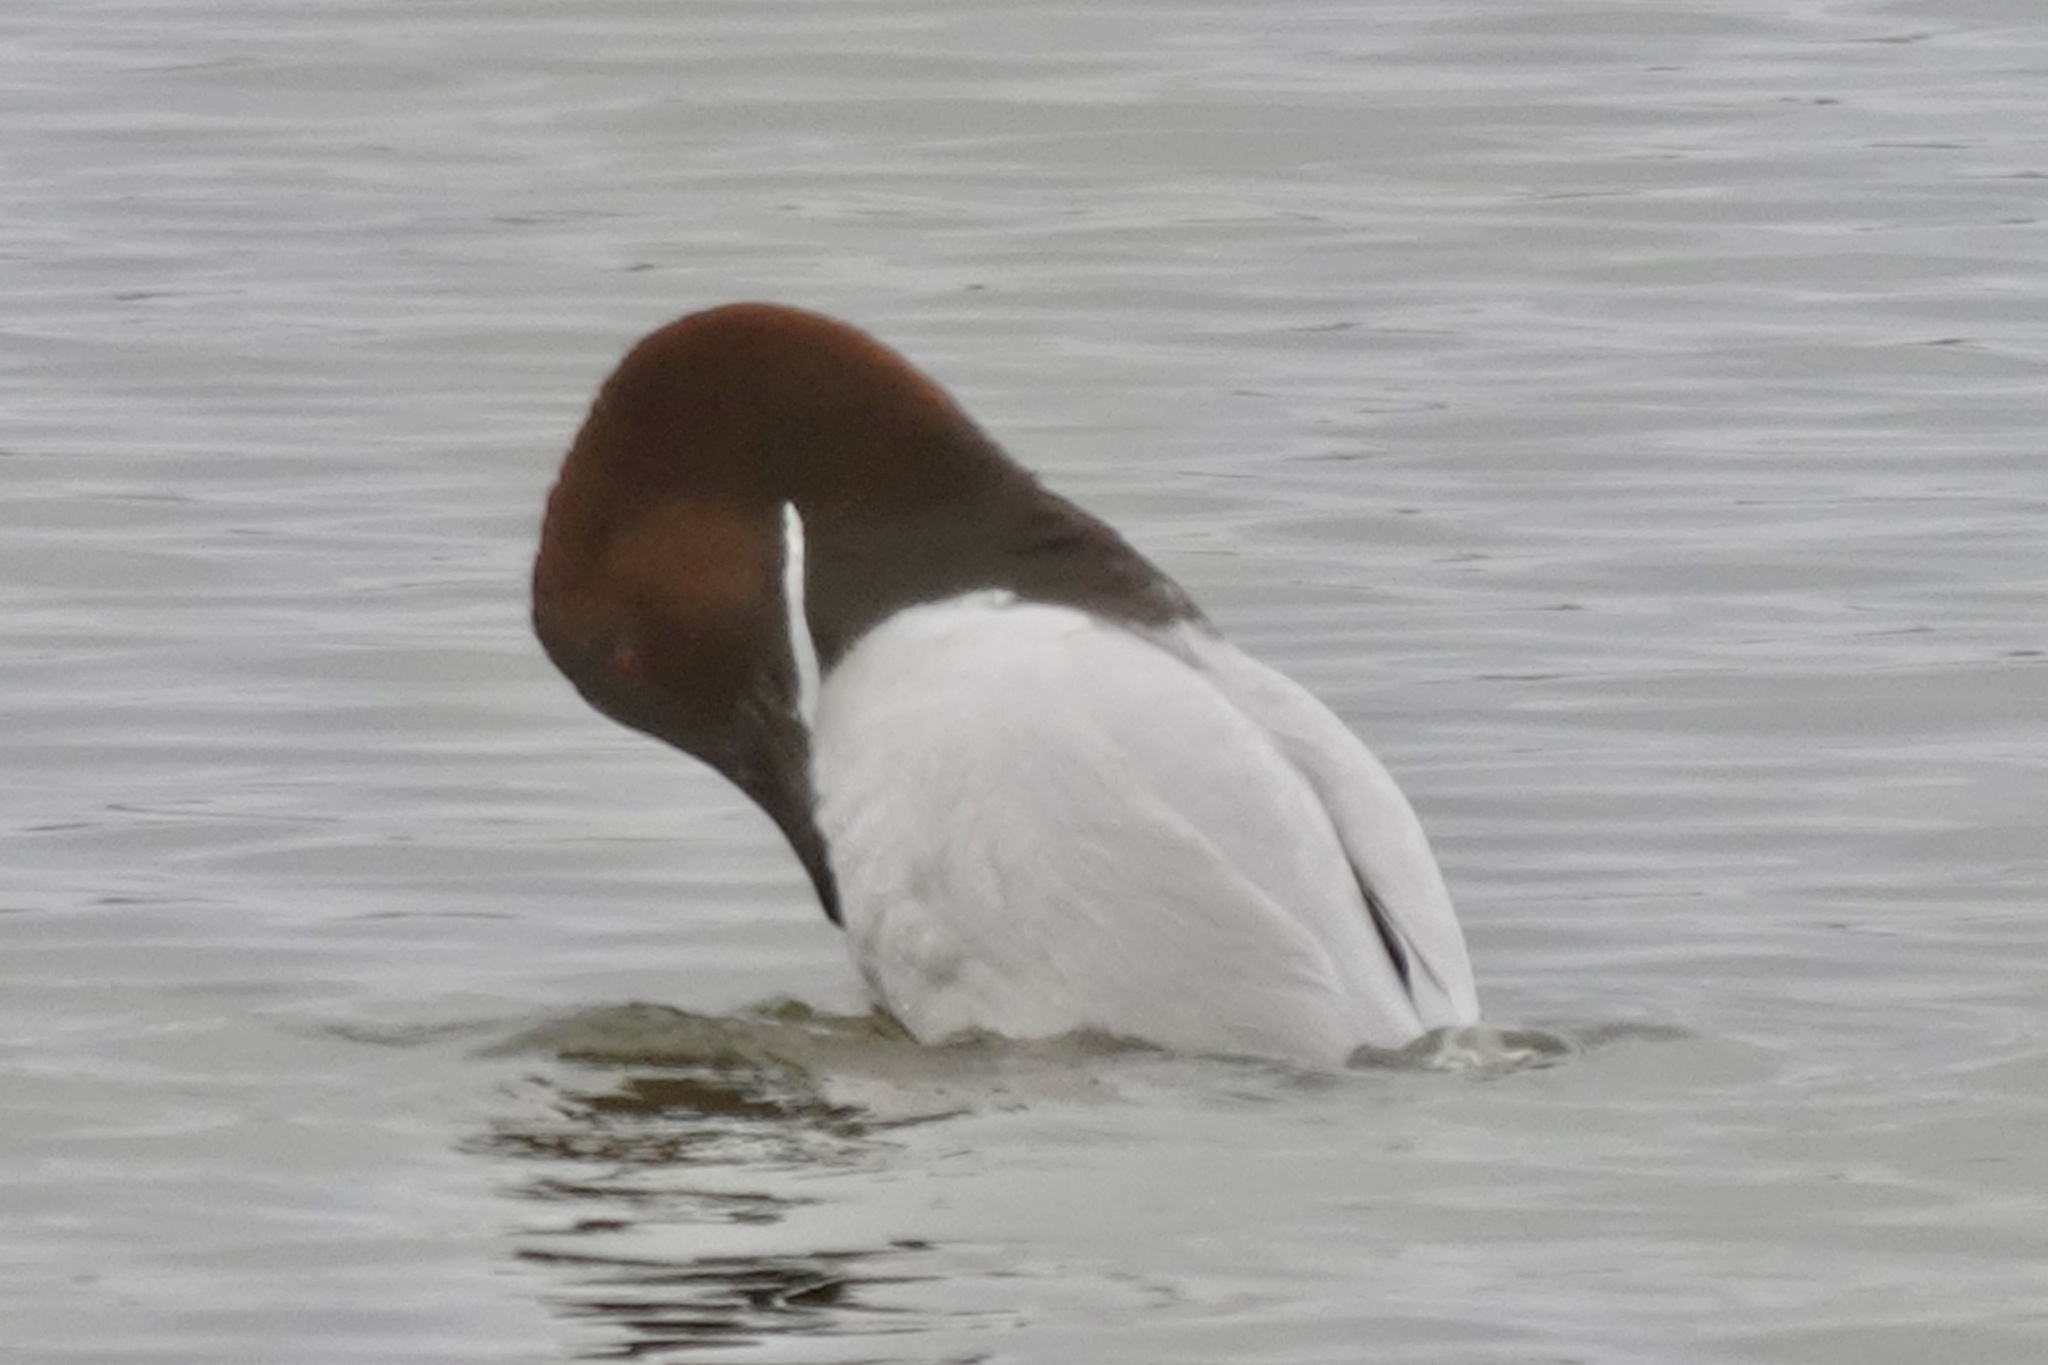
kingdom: Animalia
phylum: Chordata
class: Aves
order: Anseriformes
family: Anatidae
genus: Aythya
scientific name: Aythya valisineria
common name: Canvasback
